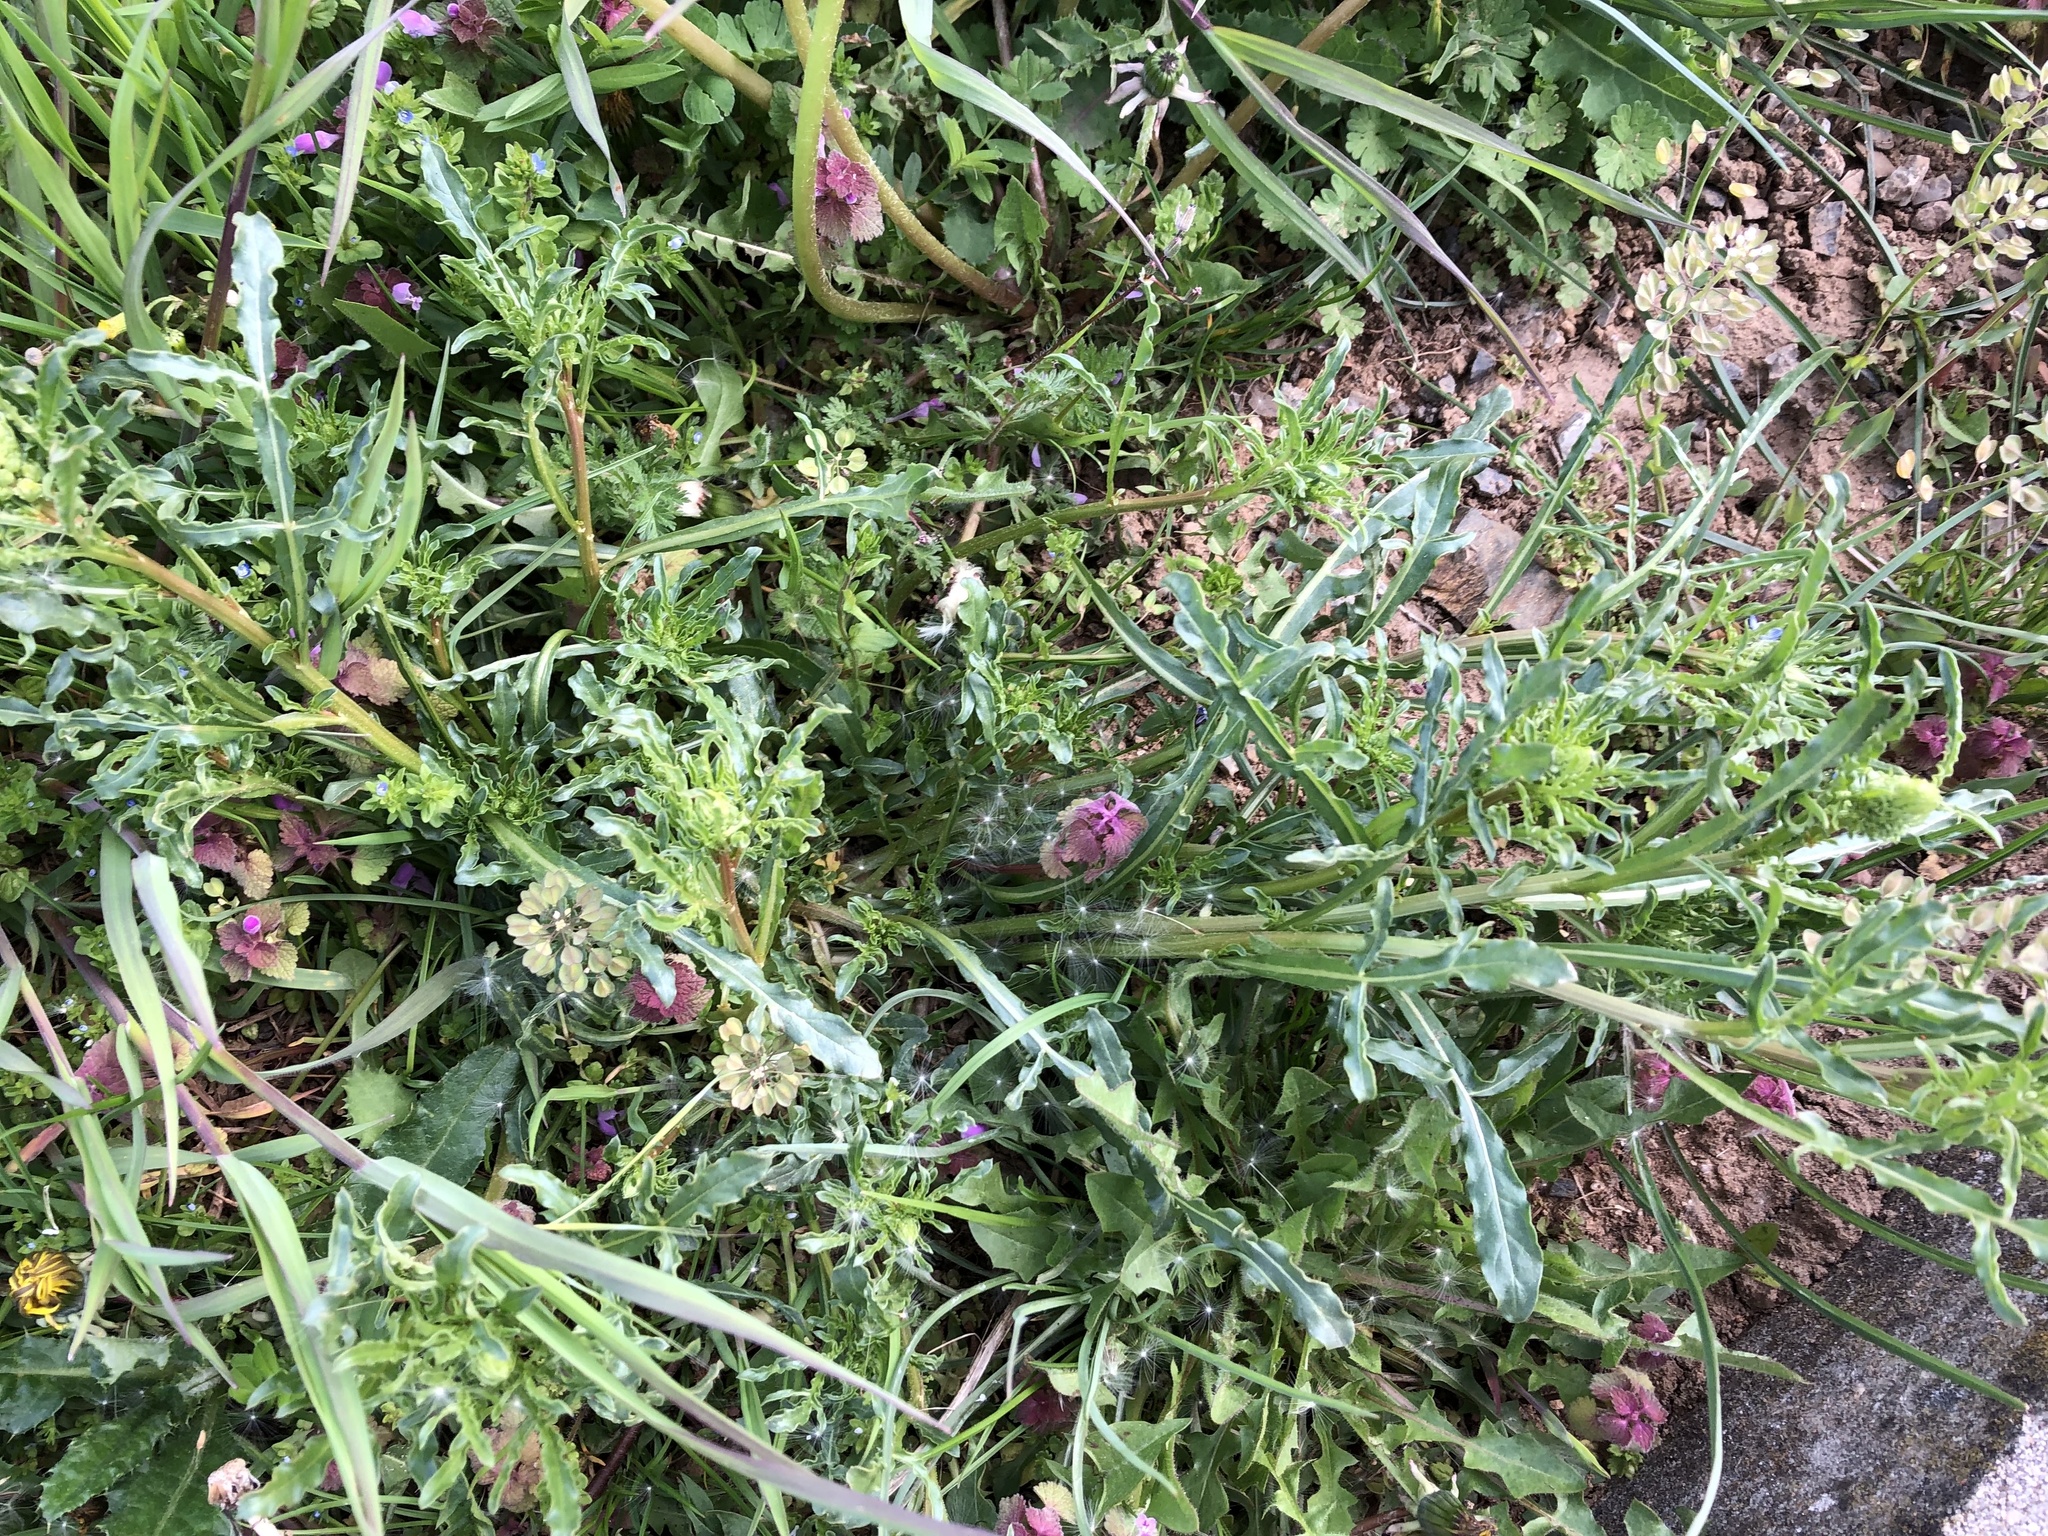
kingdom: Plantae
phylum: Tracheophyta
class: Magnoliopsida
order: Brassicales
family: Resedaceae
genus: Reseda
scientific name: Reseda lutea
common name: Wild mignonette
